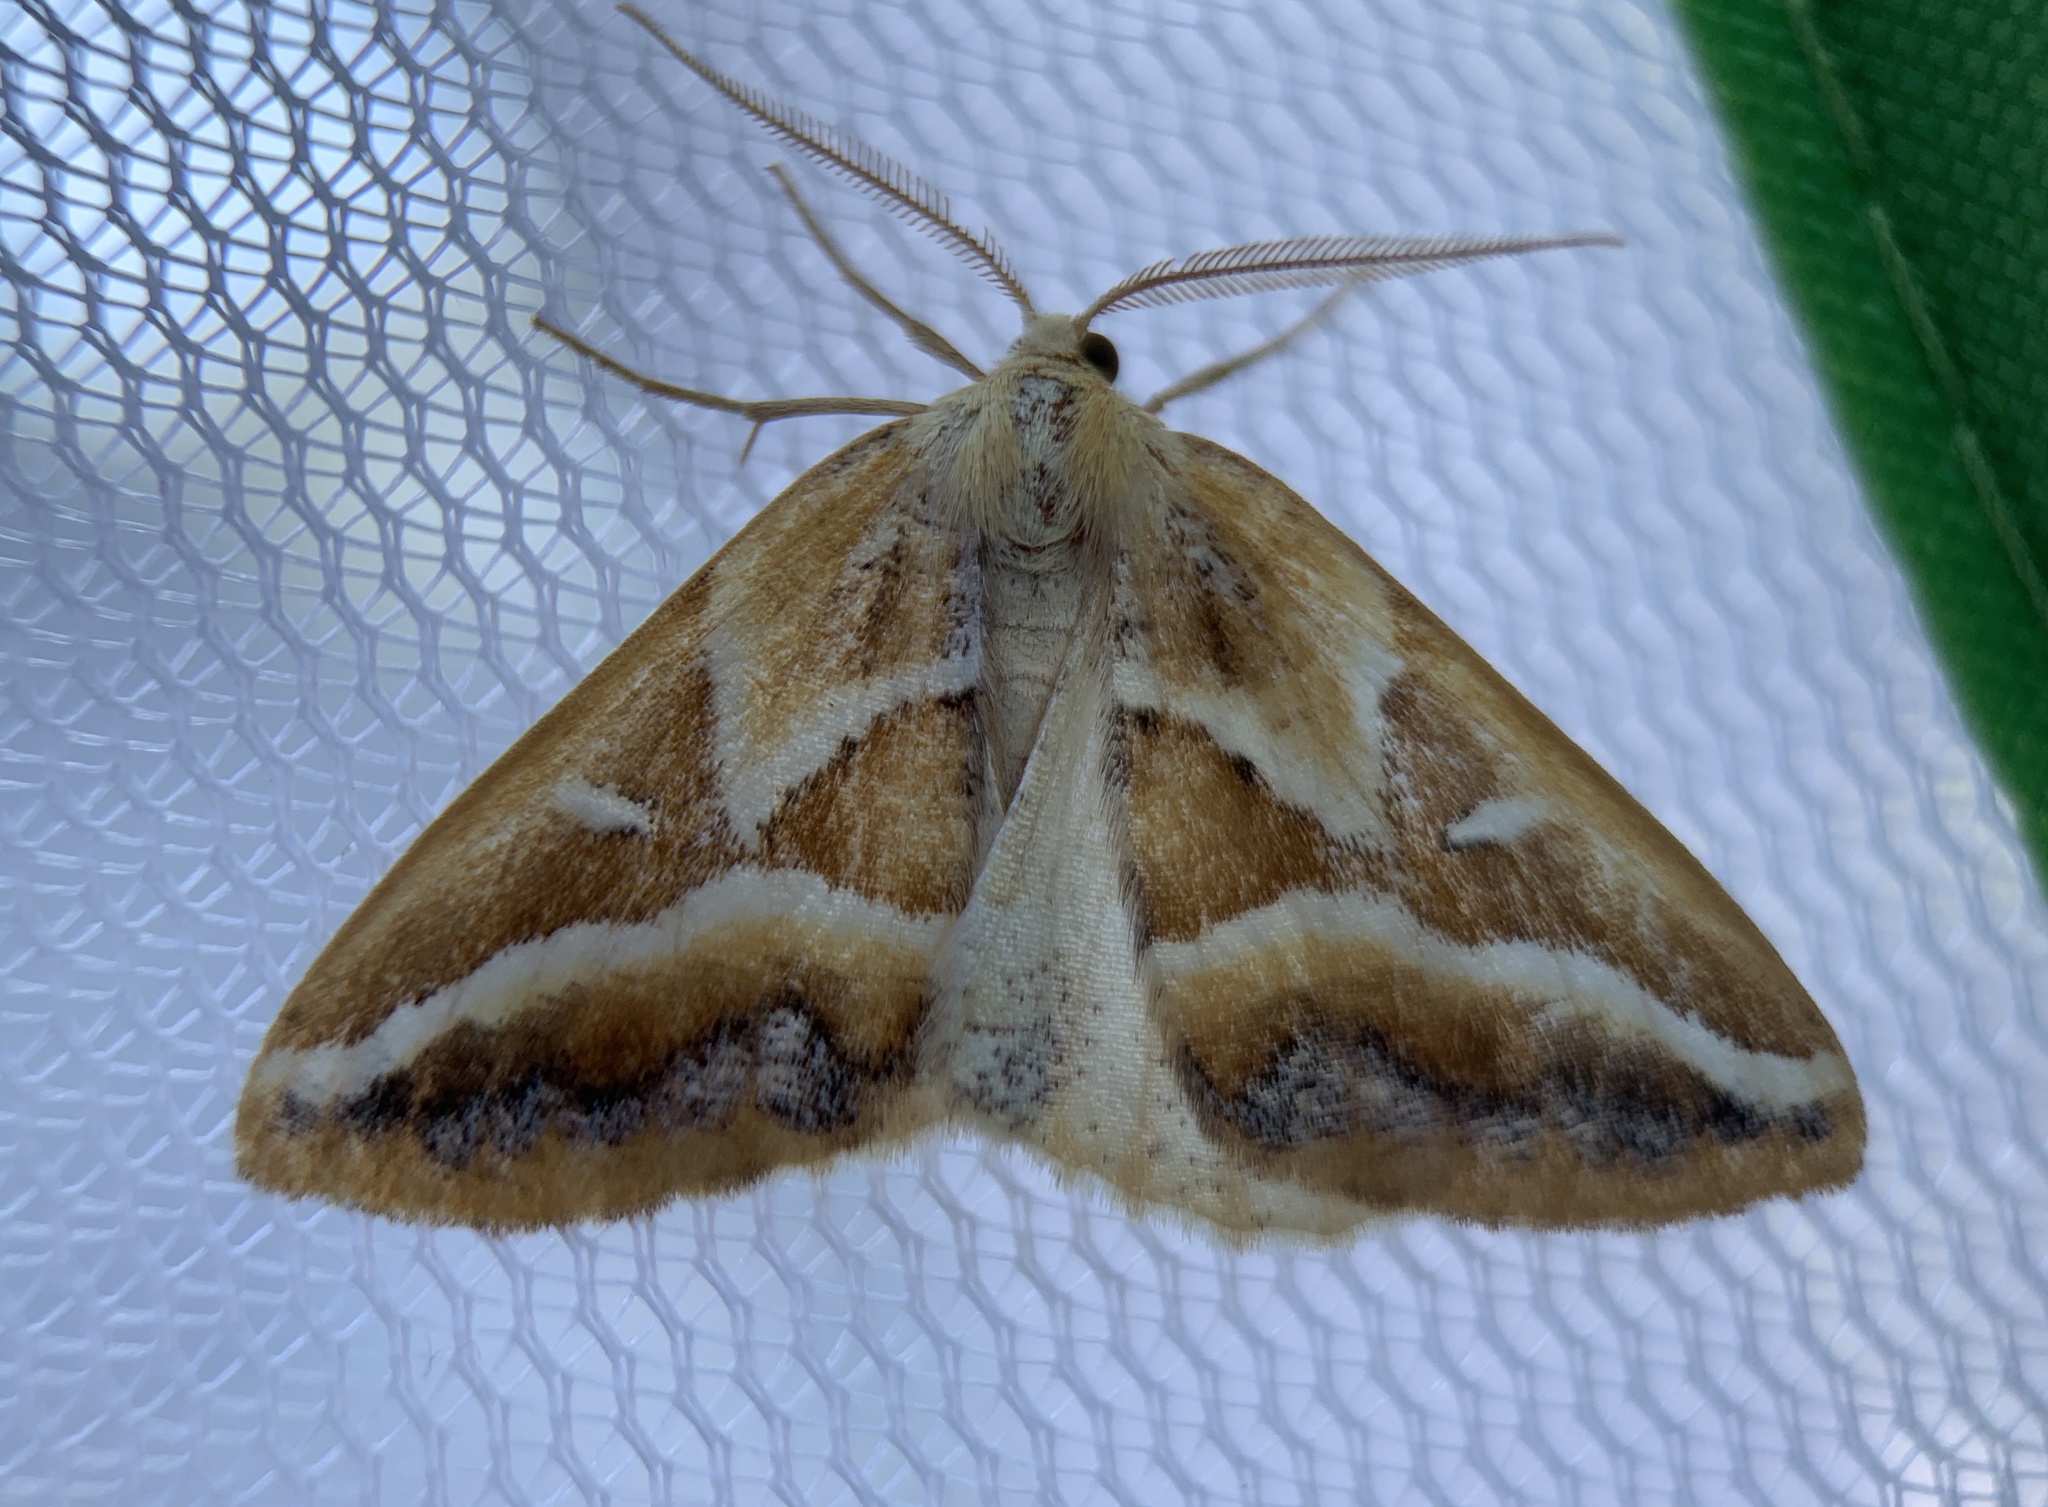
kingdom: Animalia
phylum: Arthropoda
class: Insecta
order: Lepidoptera
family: Geometridae
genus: Caripeta
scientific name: Caripeta angustiorata
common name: Brown pine looper
